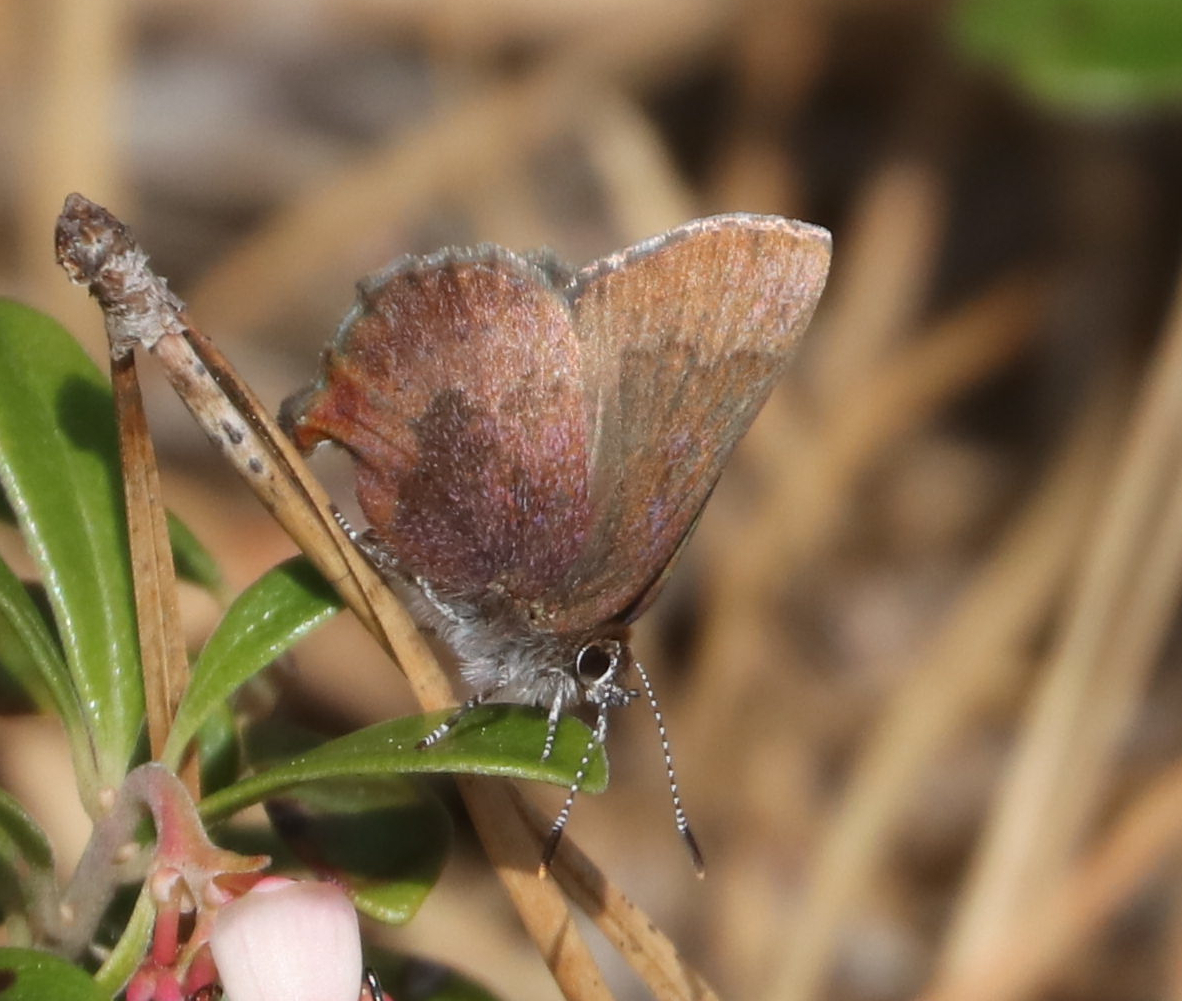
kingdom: Animalia
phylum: Arthropoda
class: Insecta
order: Lepidoptera
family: Lycaenidae
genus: Incisalia
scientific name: Incisalia irioides
